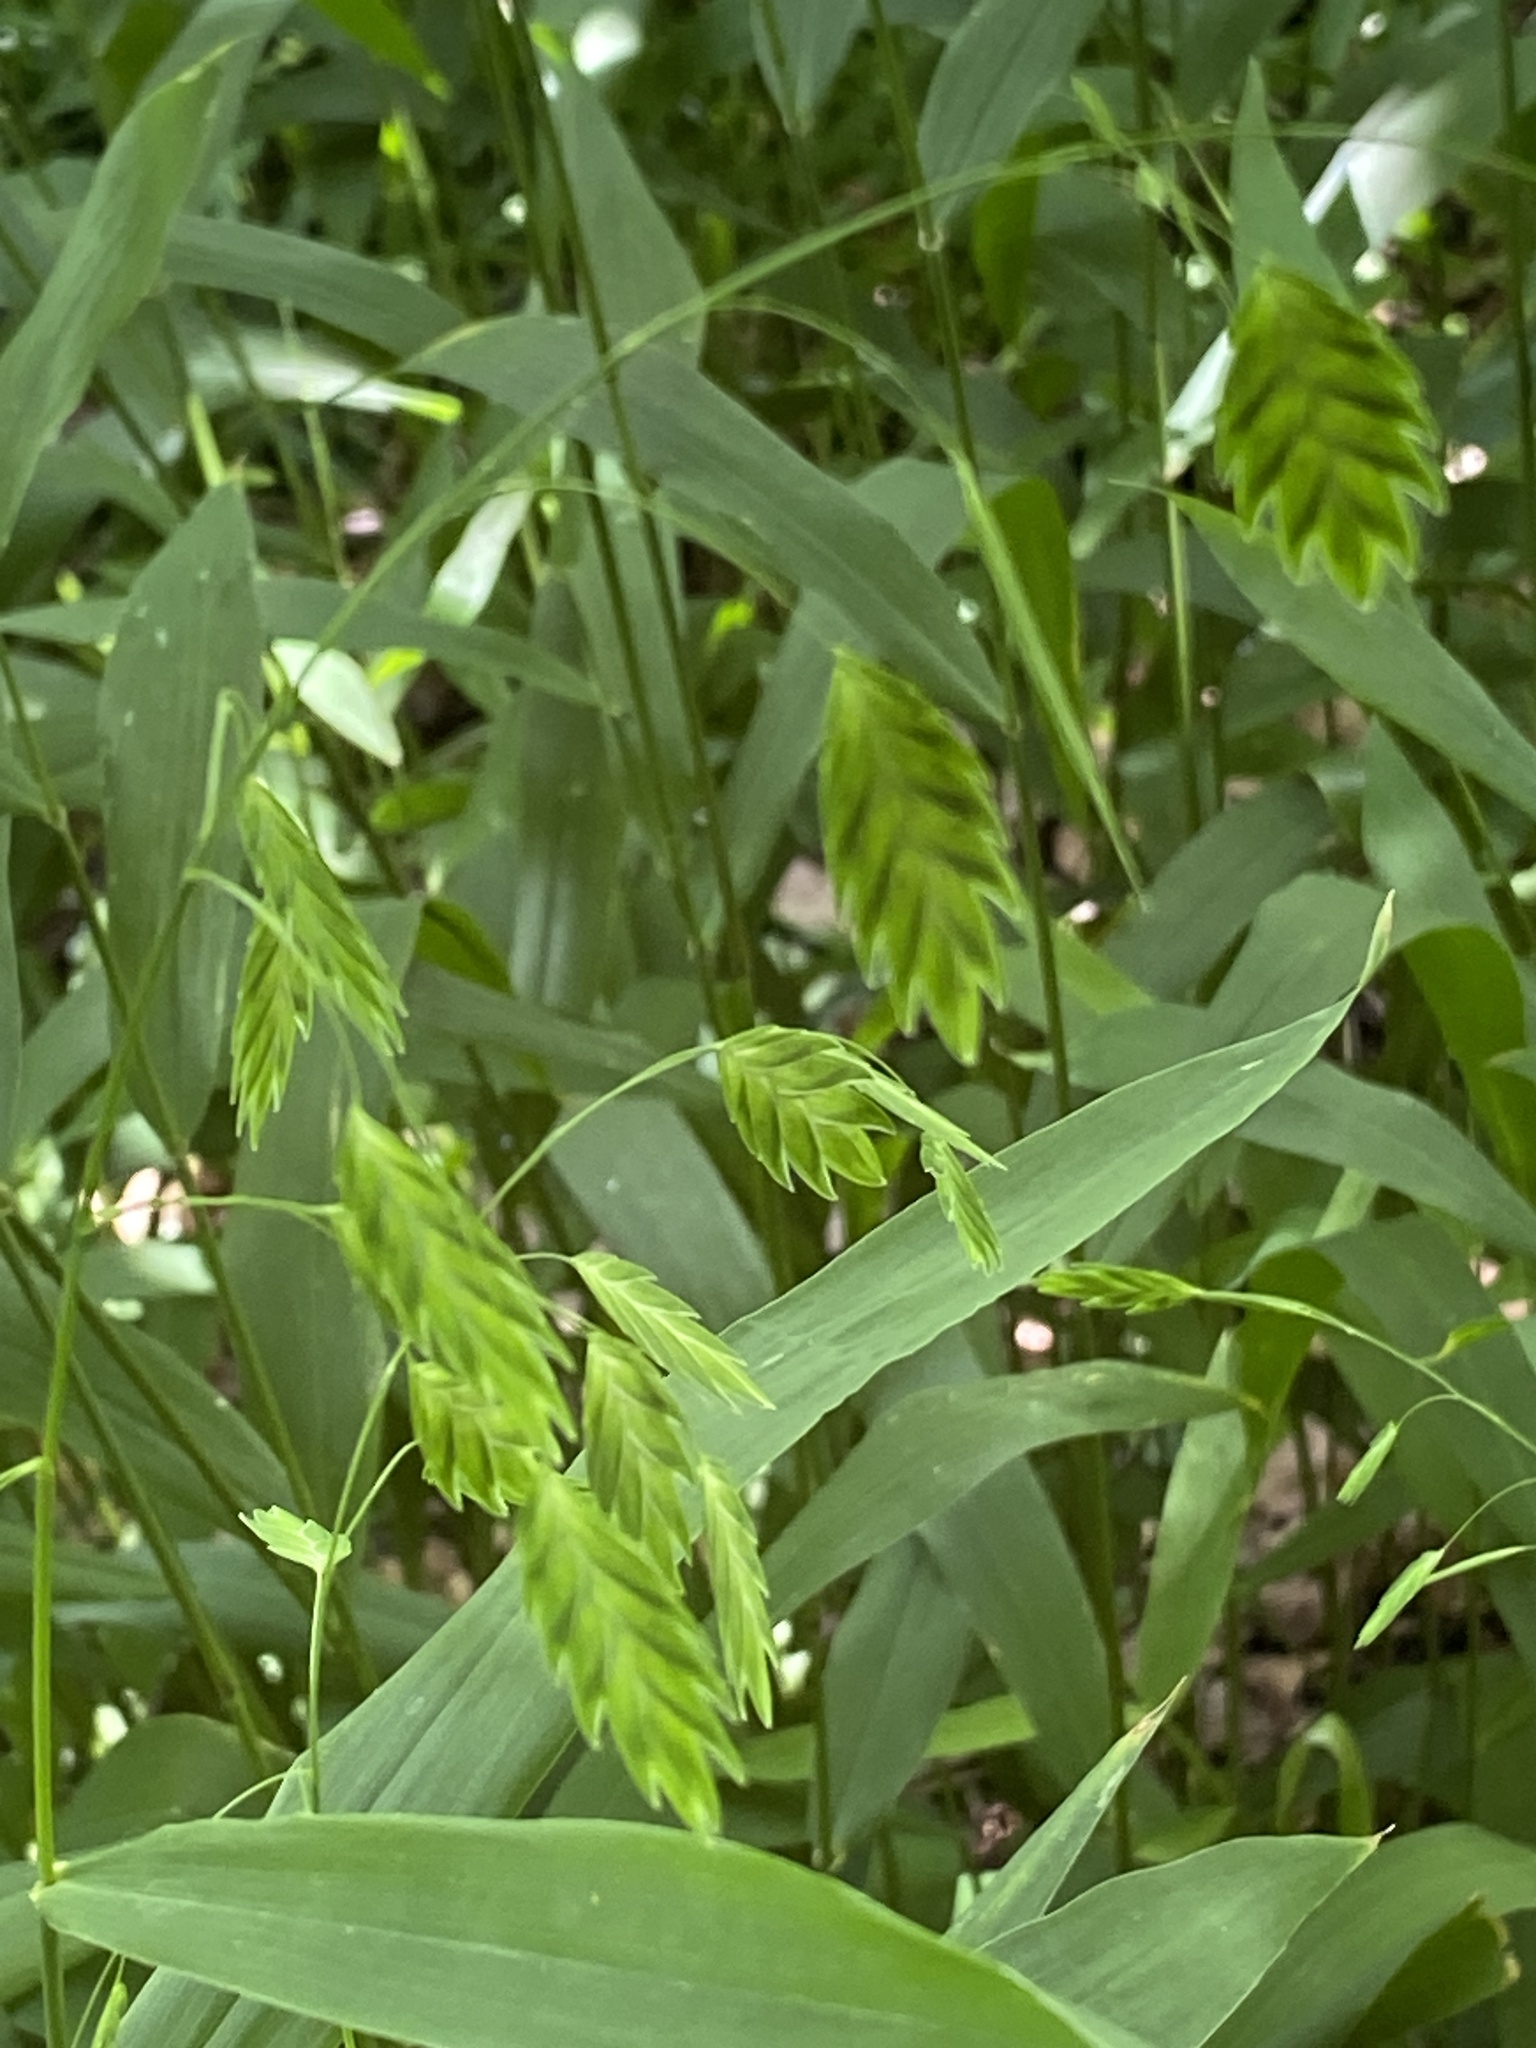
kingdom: Plantae
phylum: Tracheophyta
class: Liliopsida
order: Poales
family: Poaceae
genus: Chasmanthium
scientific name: Chasmanthium latifolium
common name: Broad-leaved chasmanthium
